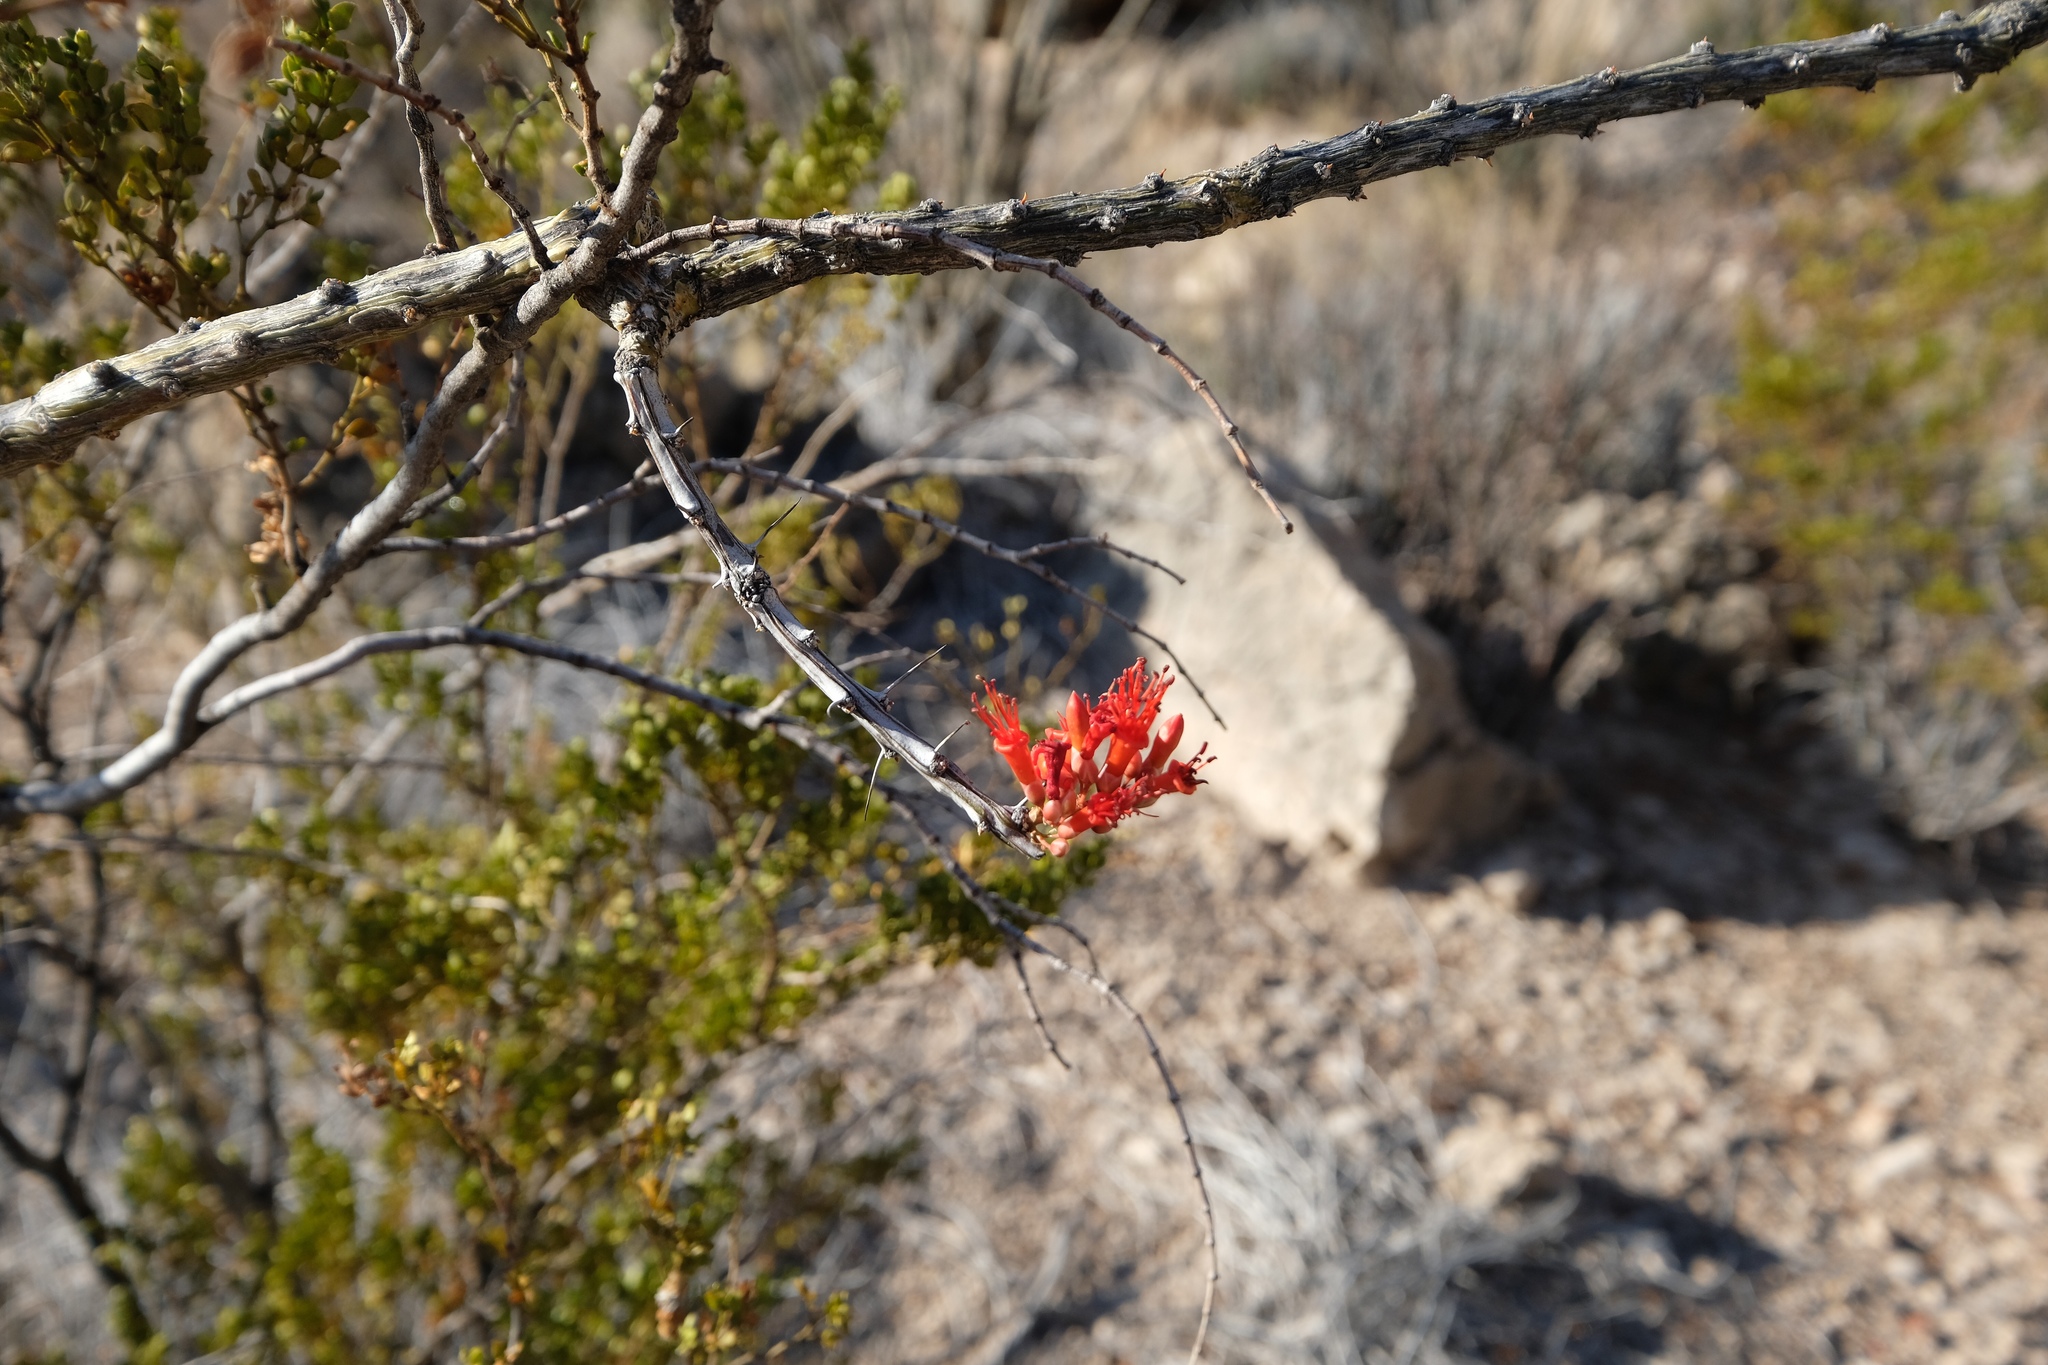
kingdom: Plantae
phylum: Tracheophyta
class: Magnoliopsida
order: Ericales
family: Fouquieriaceae
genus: Fouquieria
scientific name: Fouquieria splendens
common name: Vine-cactus
